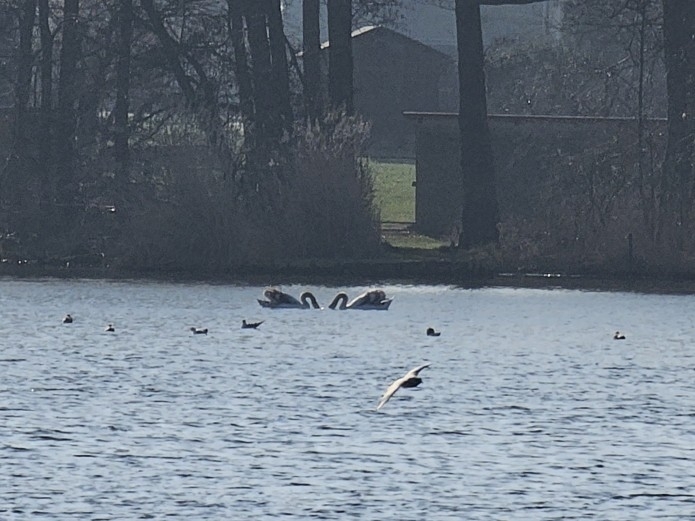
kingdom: Animalia
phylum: Chordata
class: Aves
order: Anseriformes
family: Anatidae
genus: Cygnus
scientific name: Cygnus olor
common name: Mute swan
